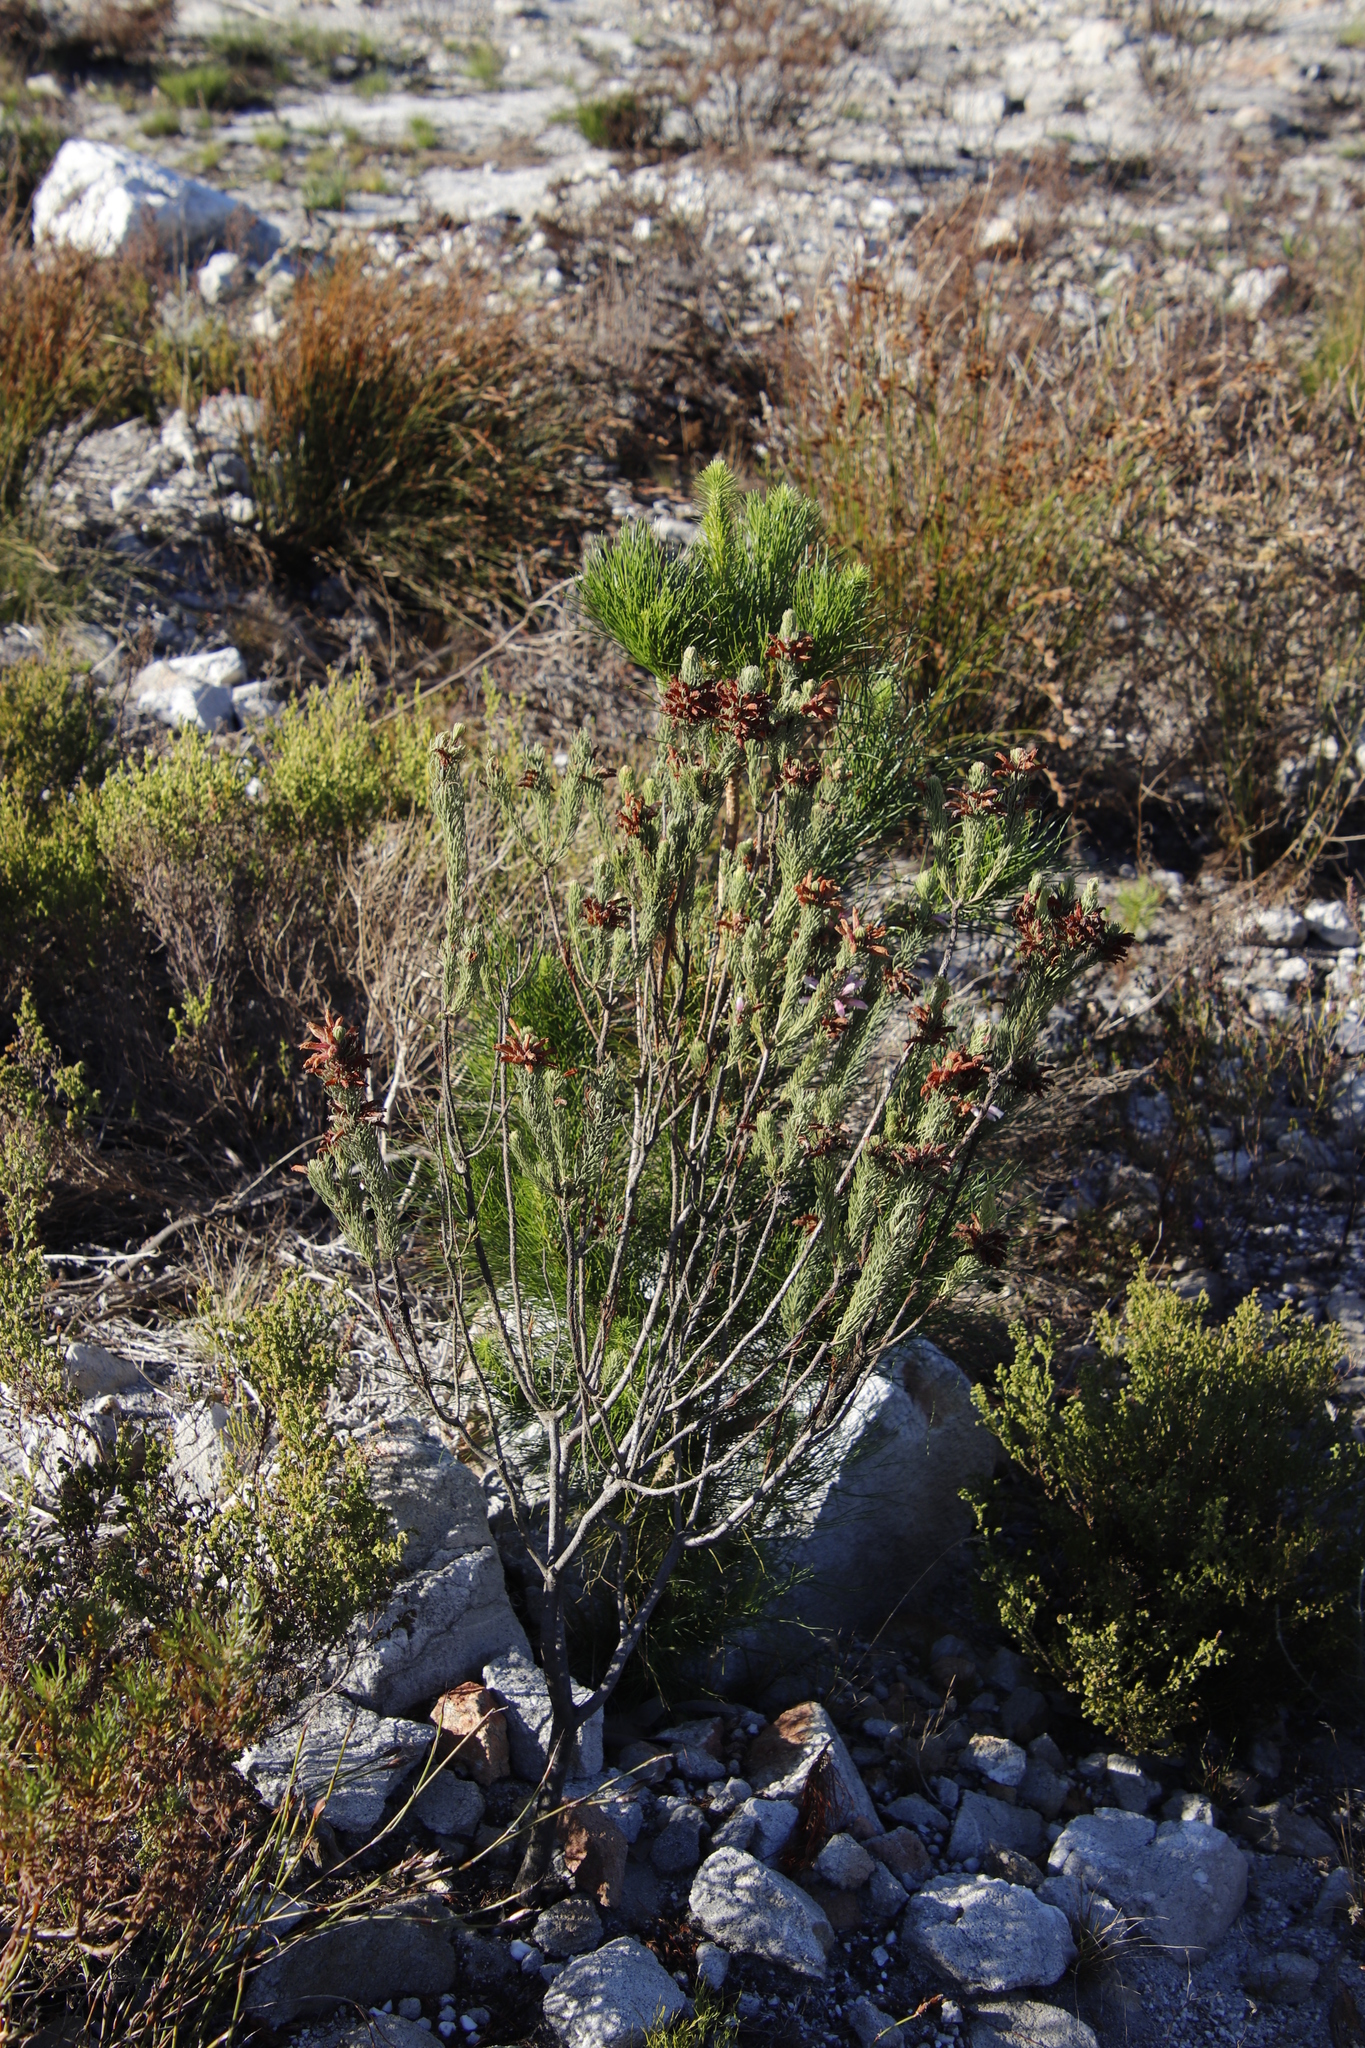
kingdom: Plantae
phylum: Tracheophyta
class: Magnoliopsida
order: Ericales
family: Ericaceae
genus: Erica
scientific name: Erica viscaria
